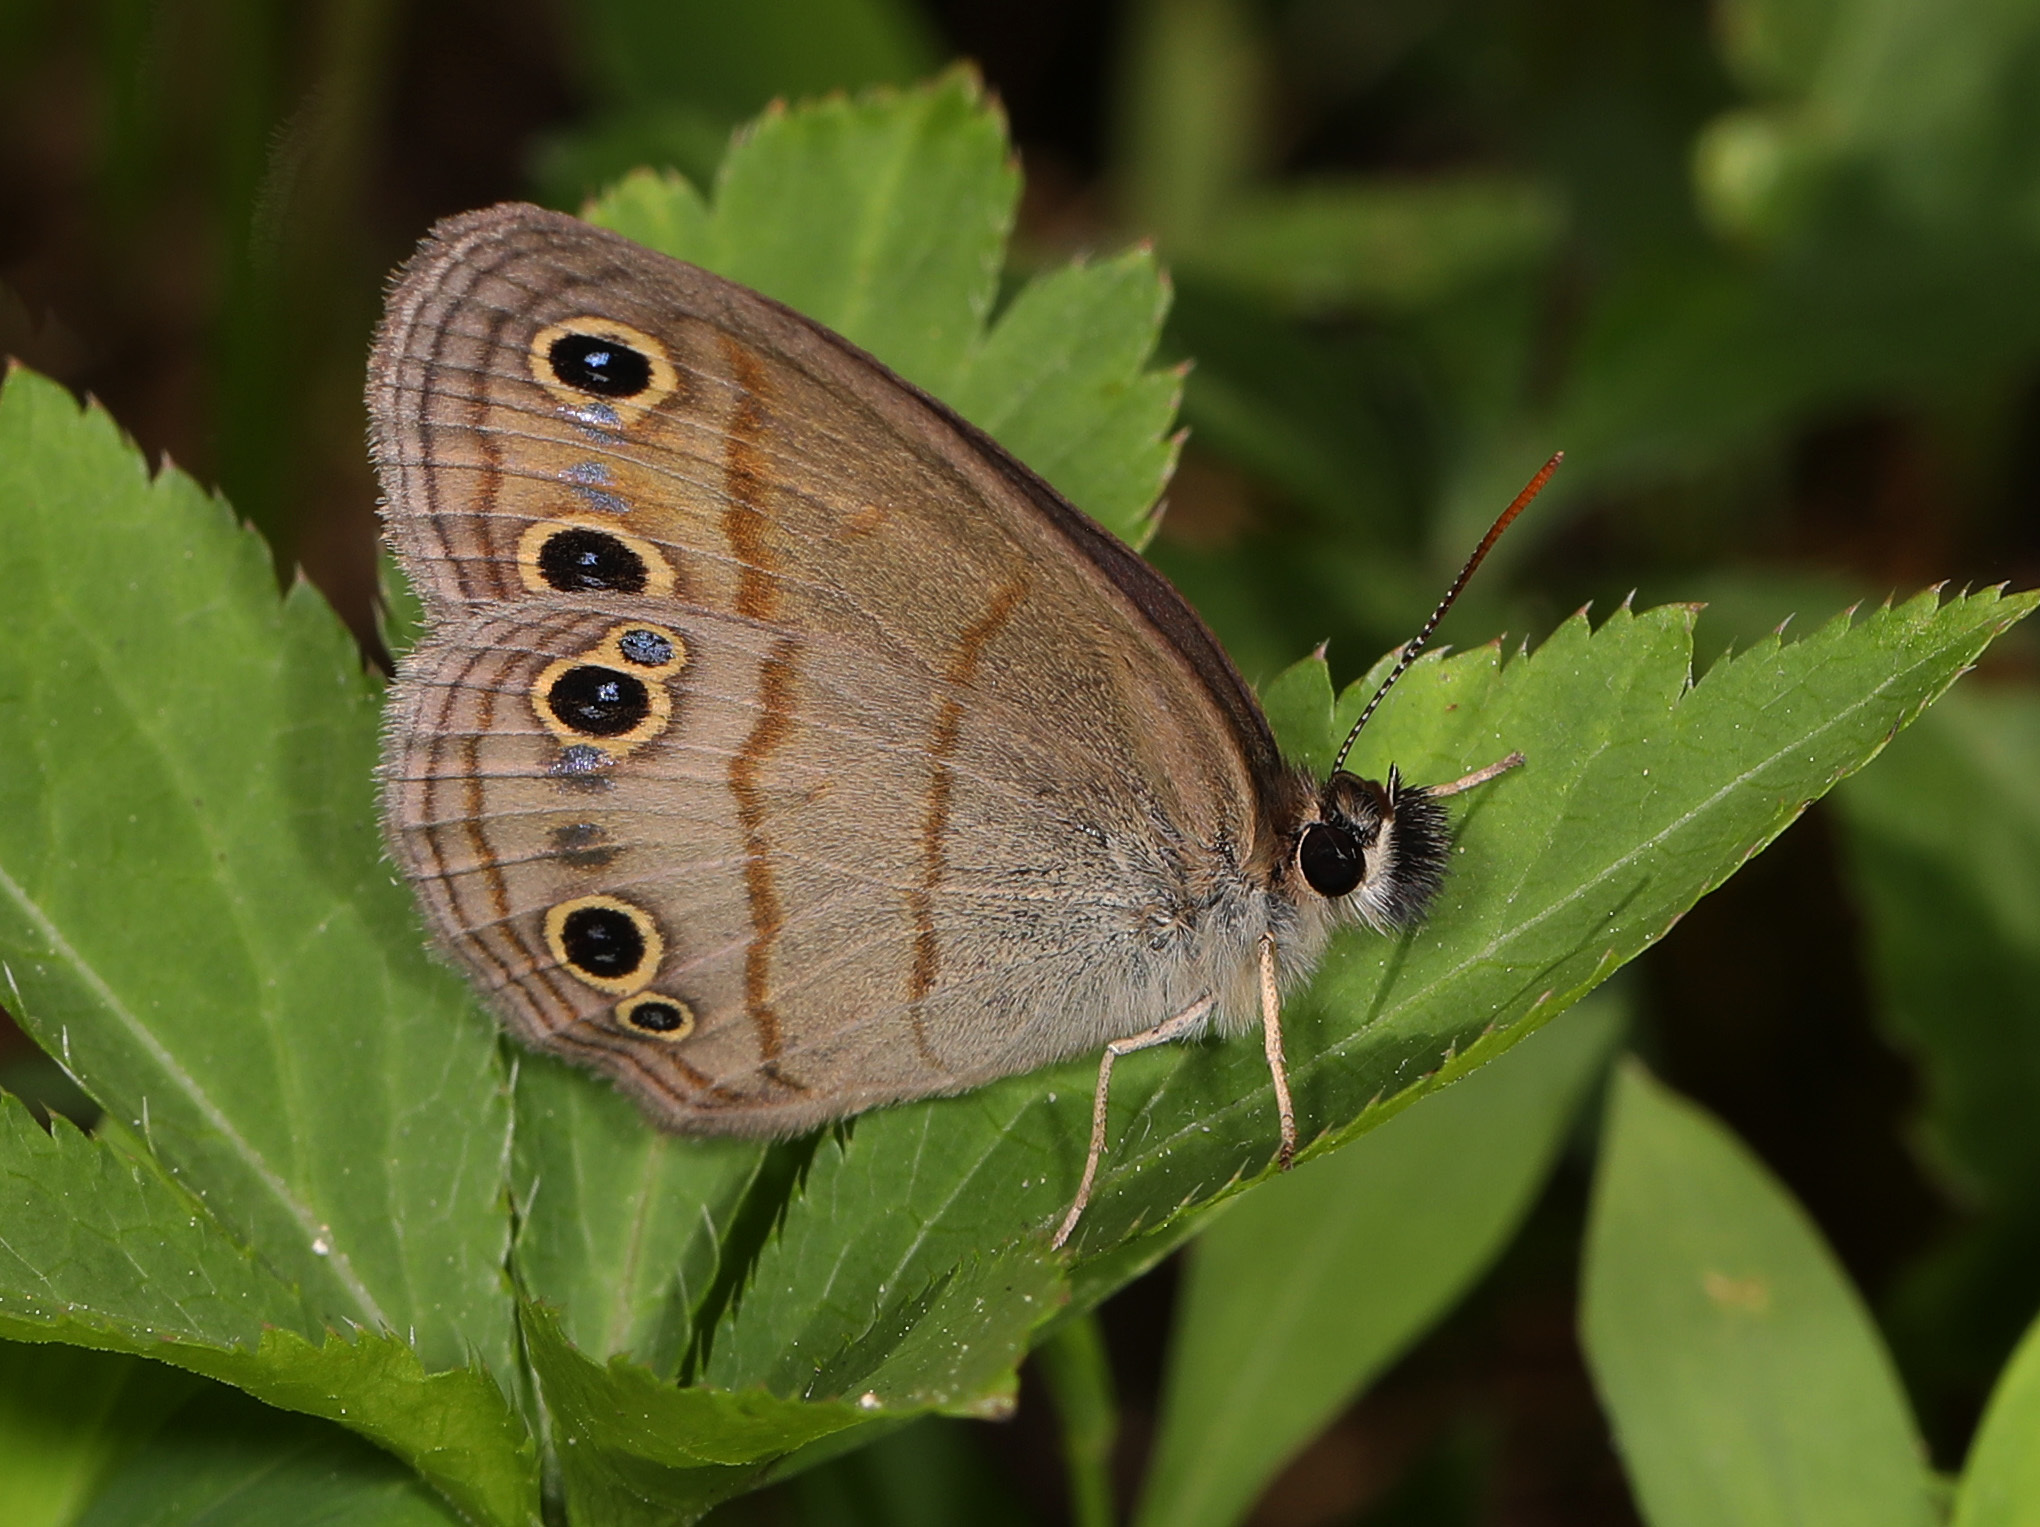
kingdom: Animalia
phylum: Arthropoda
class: Insecta
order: Lepidoptera
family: Nymphalidae
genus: Euptychia
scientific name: Euptychia cymela
